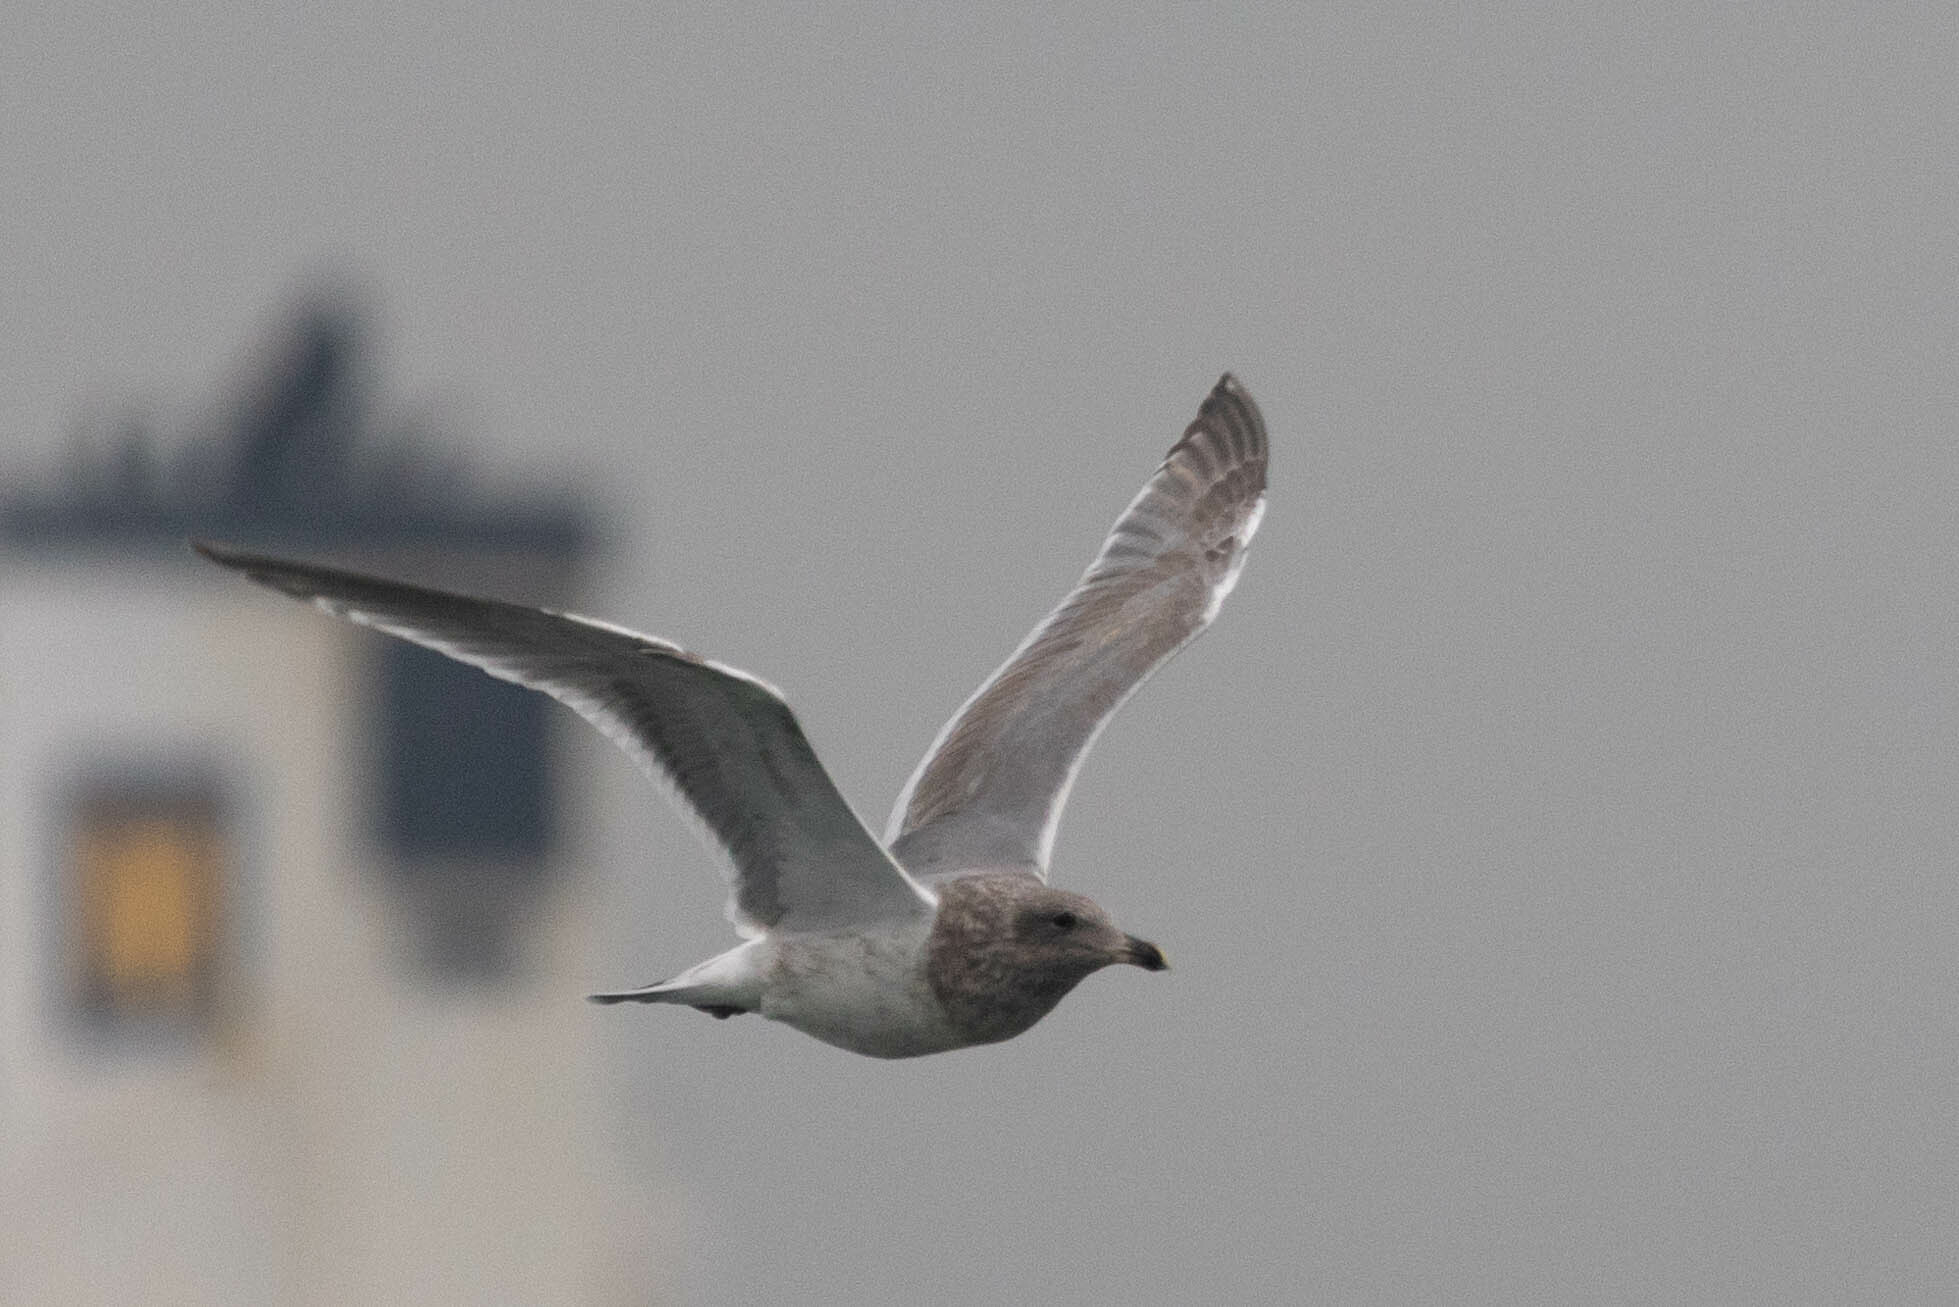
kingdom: Animalia
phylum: Chordata
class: Aves
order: Charadriiformes
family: Laridae
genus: Larus
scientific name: Larus
